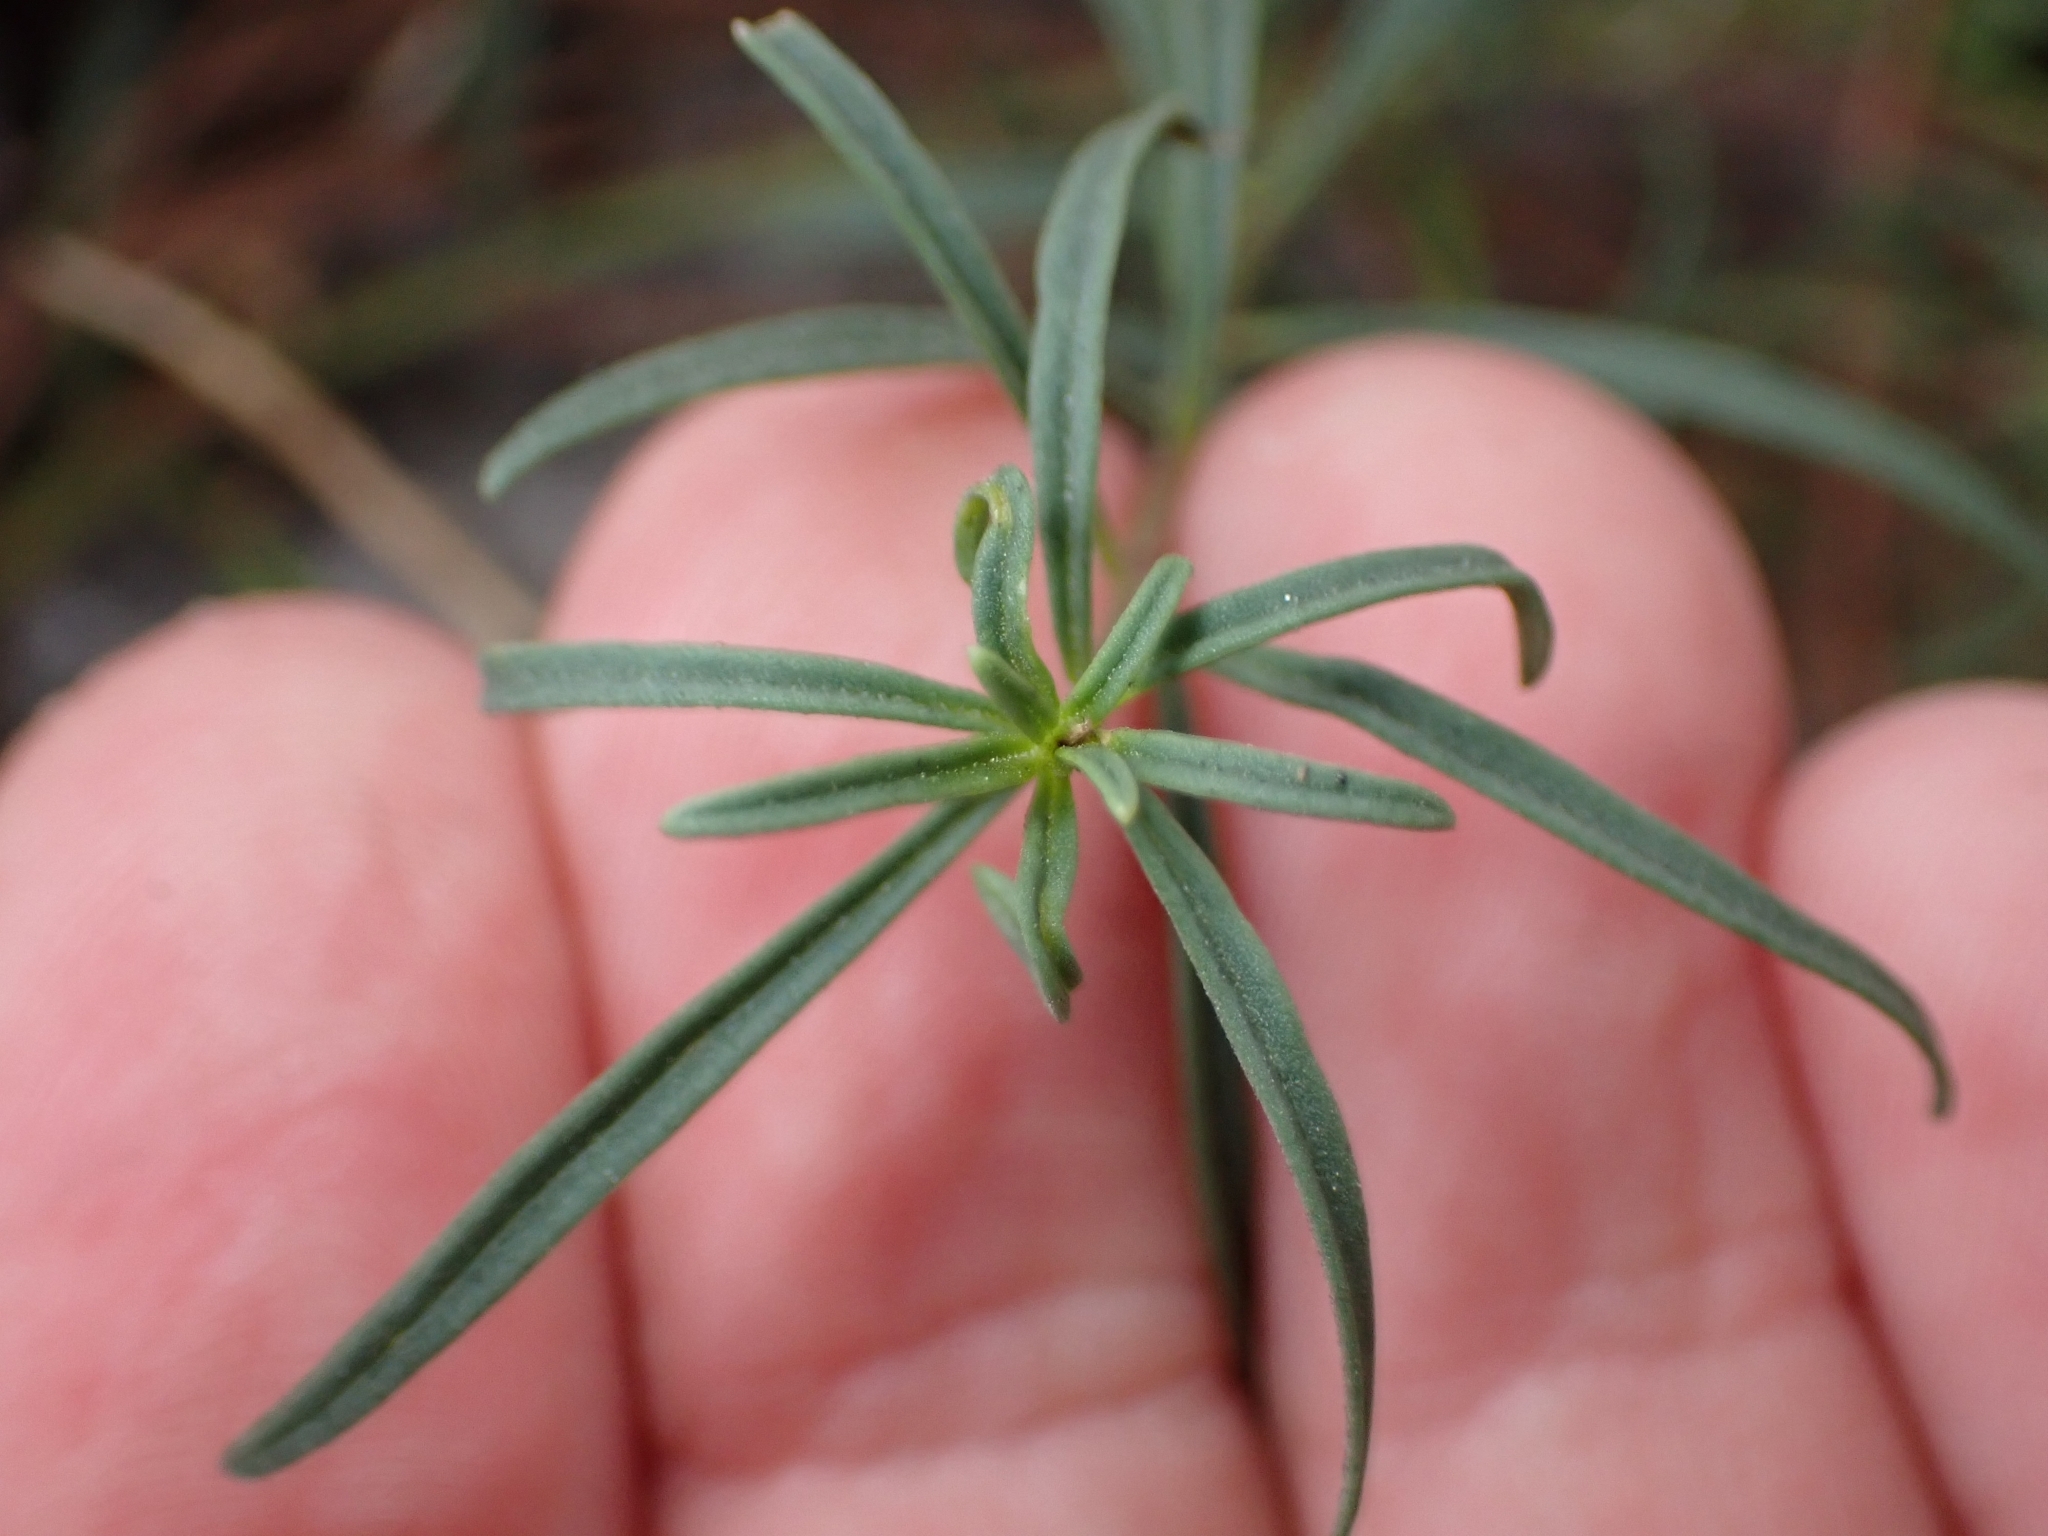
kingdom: Plantae
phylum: Tracheophyta
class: Magnoliopsida
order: Lamiales
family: Plantaginaceae
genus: Antirrhinum
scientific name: Antirrhinum siculum
